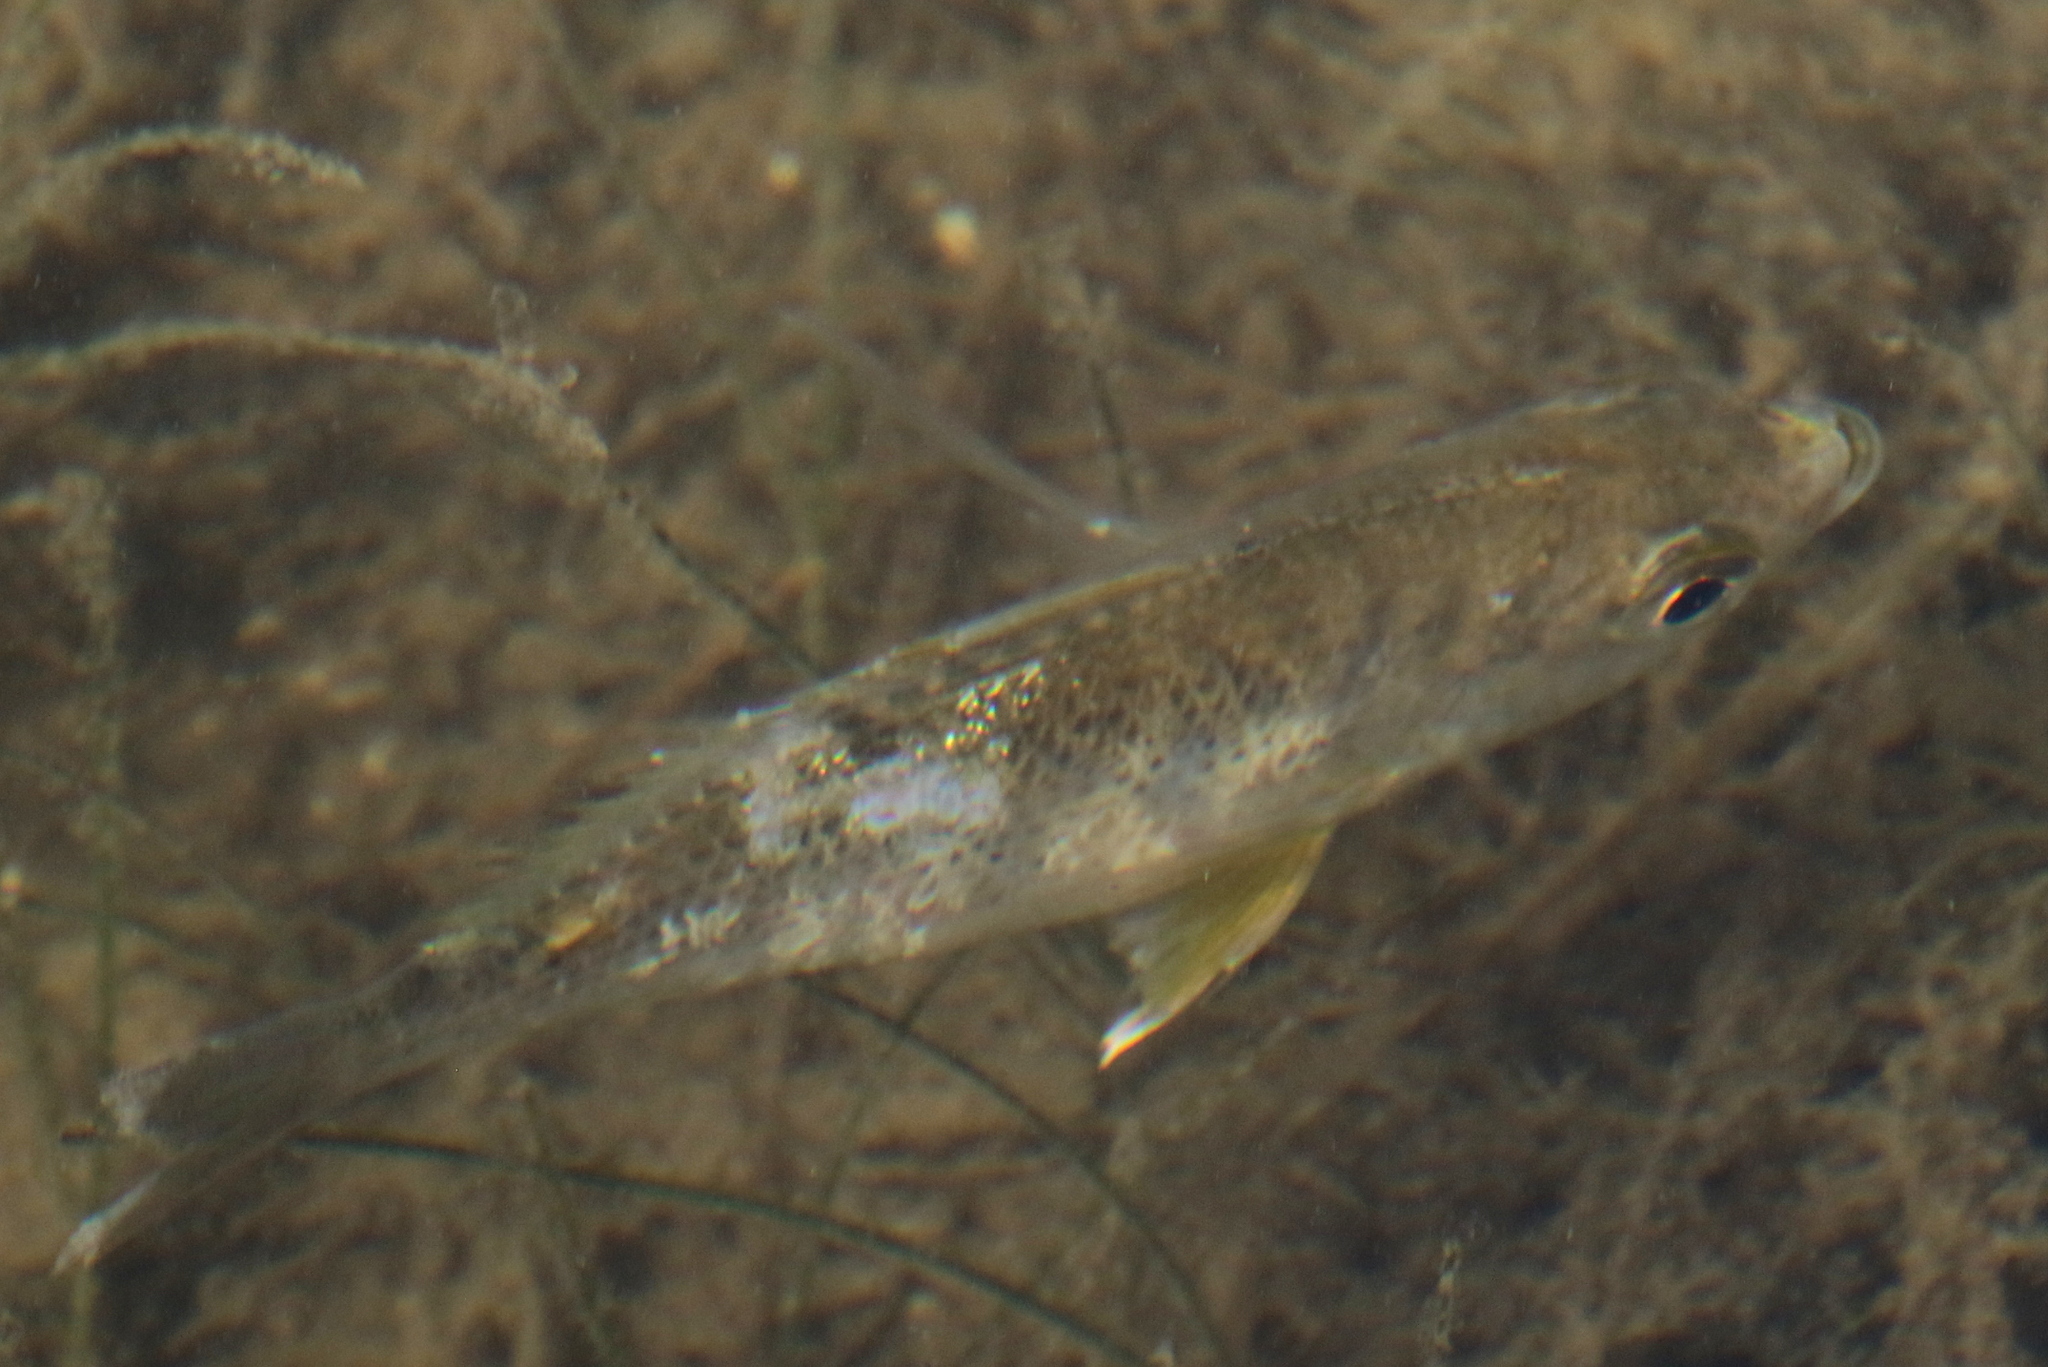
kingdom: Animalia
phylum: Chordata
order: Perciformes
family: Gerreidae
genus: Gerres
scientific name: Gerres cinereus
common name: Hedow
